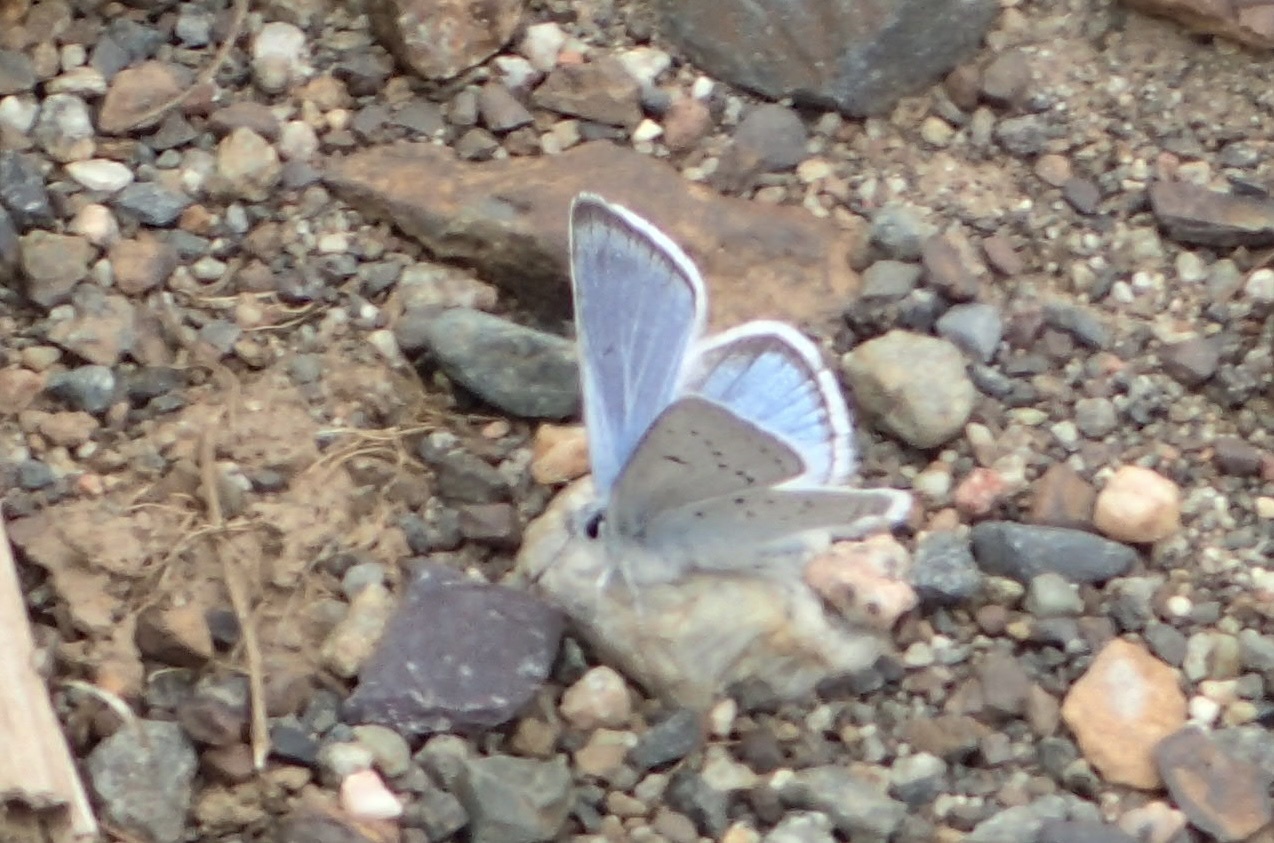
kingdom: Animalia
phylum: Arthropoda
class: Insecta
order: Lepidoptera
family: Lycaenidae
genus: Icaricia
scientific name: Icaricia saepiolus
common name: Greenish blue
